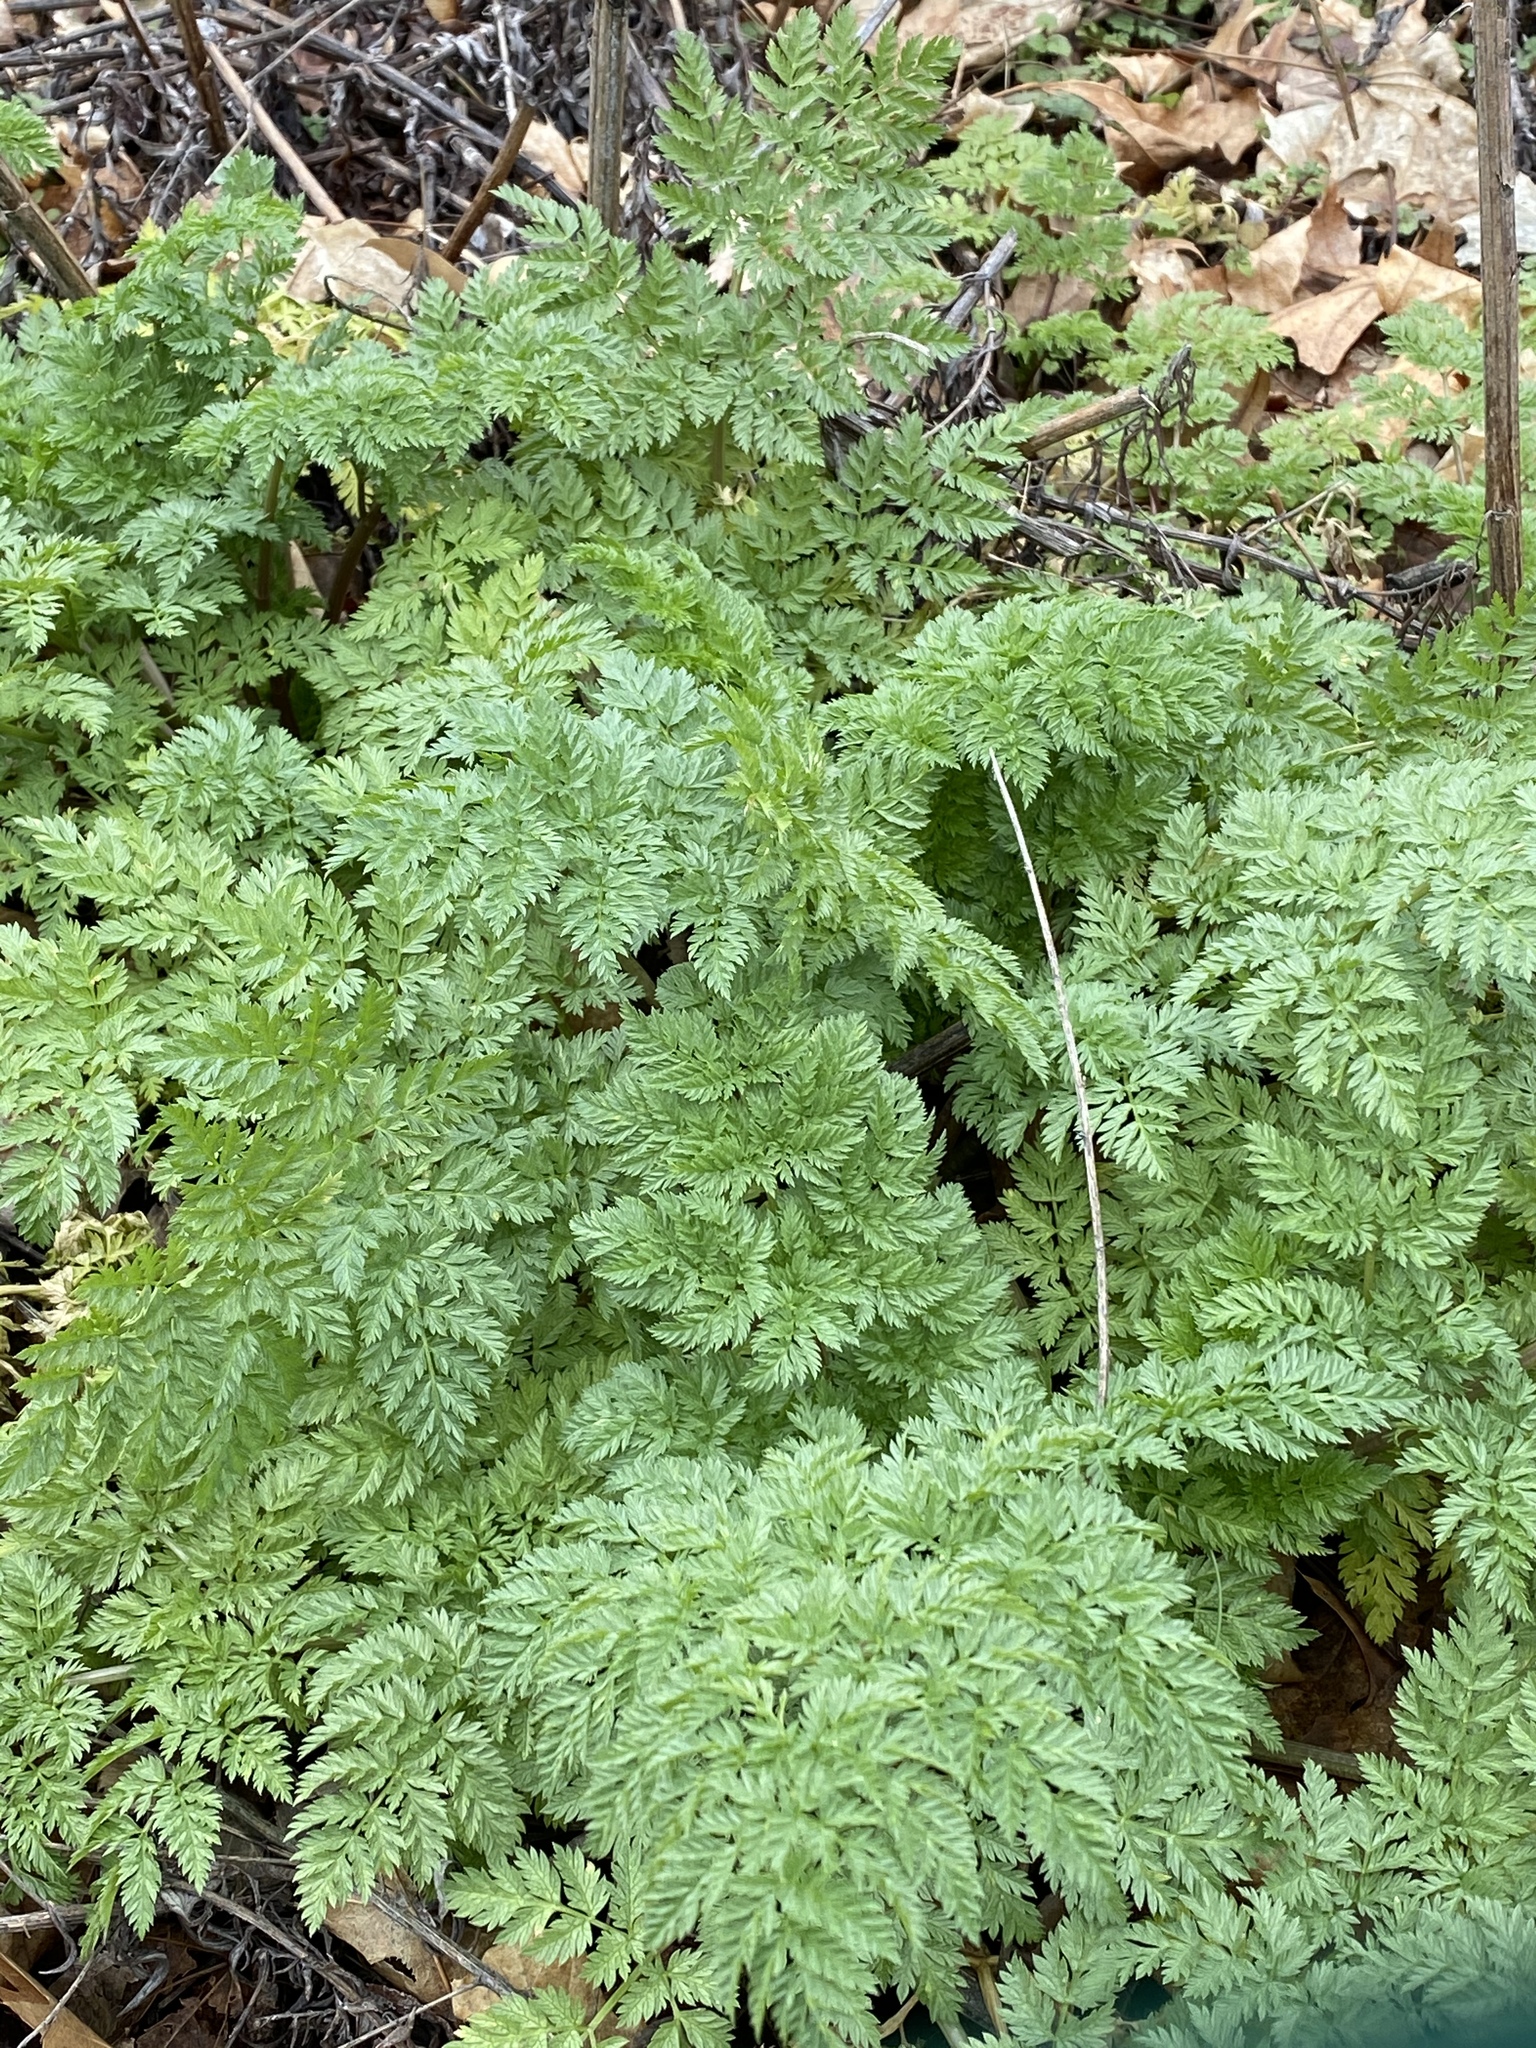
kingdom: Plantae
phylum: Tracheophyta
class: Magnoliopsida
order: Apiales
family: Apiaceae
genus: Conium
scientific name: Conium maculatum
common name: Hemlock
